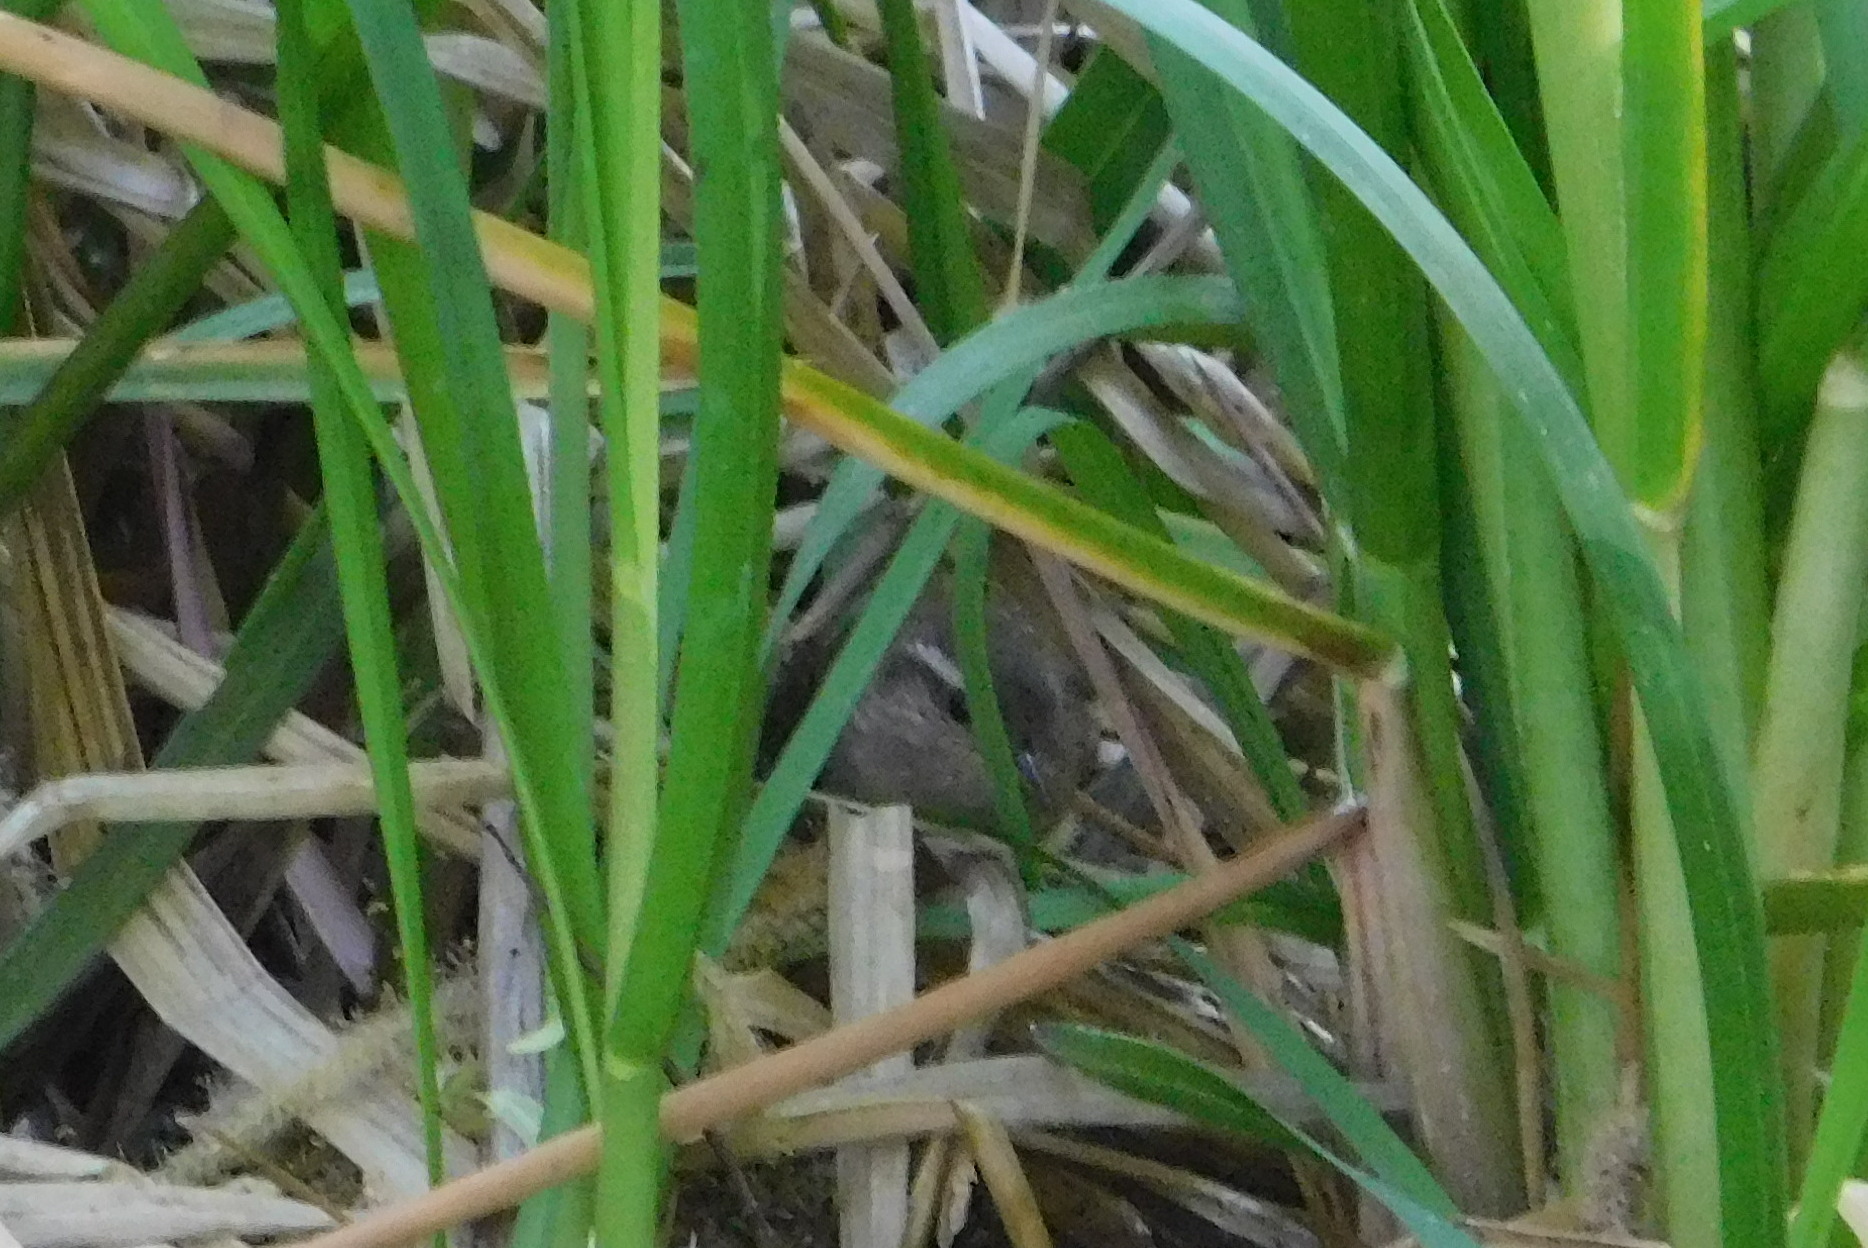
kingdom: Animalia
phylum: Chordata
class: Aves
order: Passeriformes
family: Troglodytidae
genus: Troglodytes
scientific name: Troglodytes troglodytes
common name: Eurasian wren
